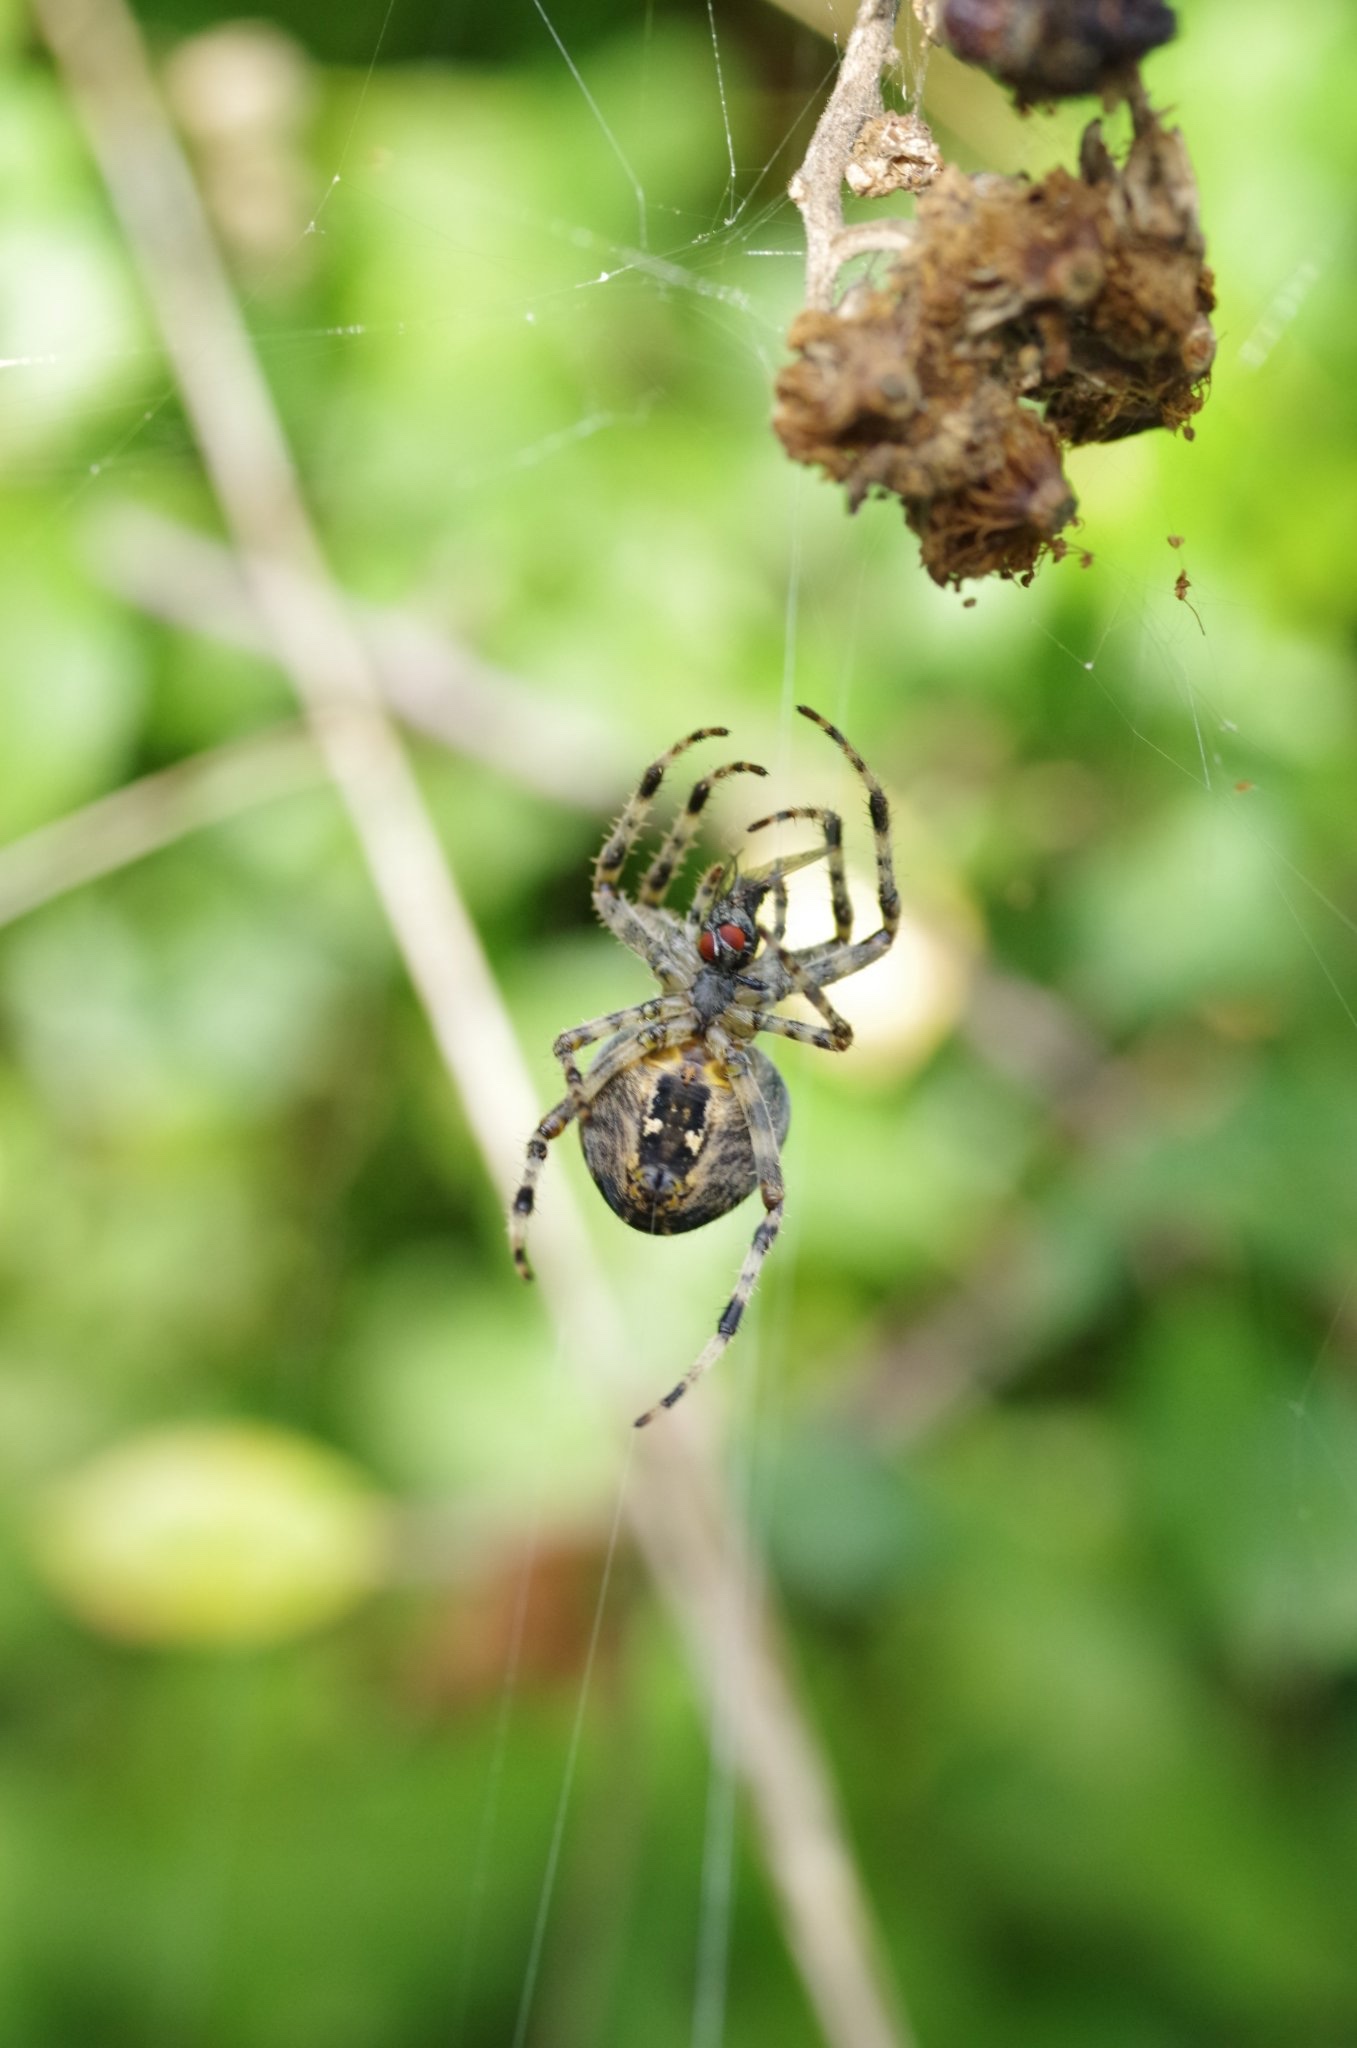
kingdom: Animalia
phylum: Arthropoda
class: Arachnida
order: Araneae
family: Araneidae
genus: Araneus
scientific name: Araneus diadematus
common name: Cross orbweaver
